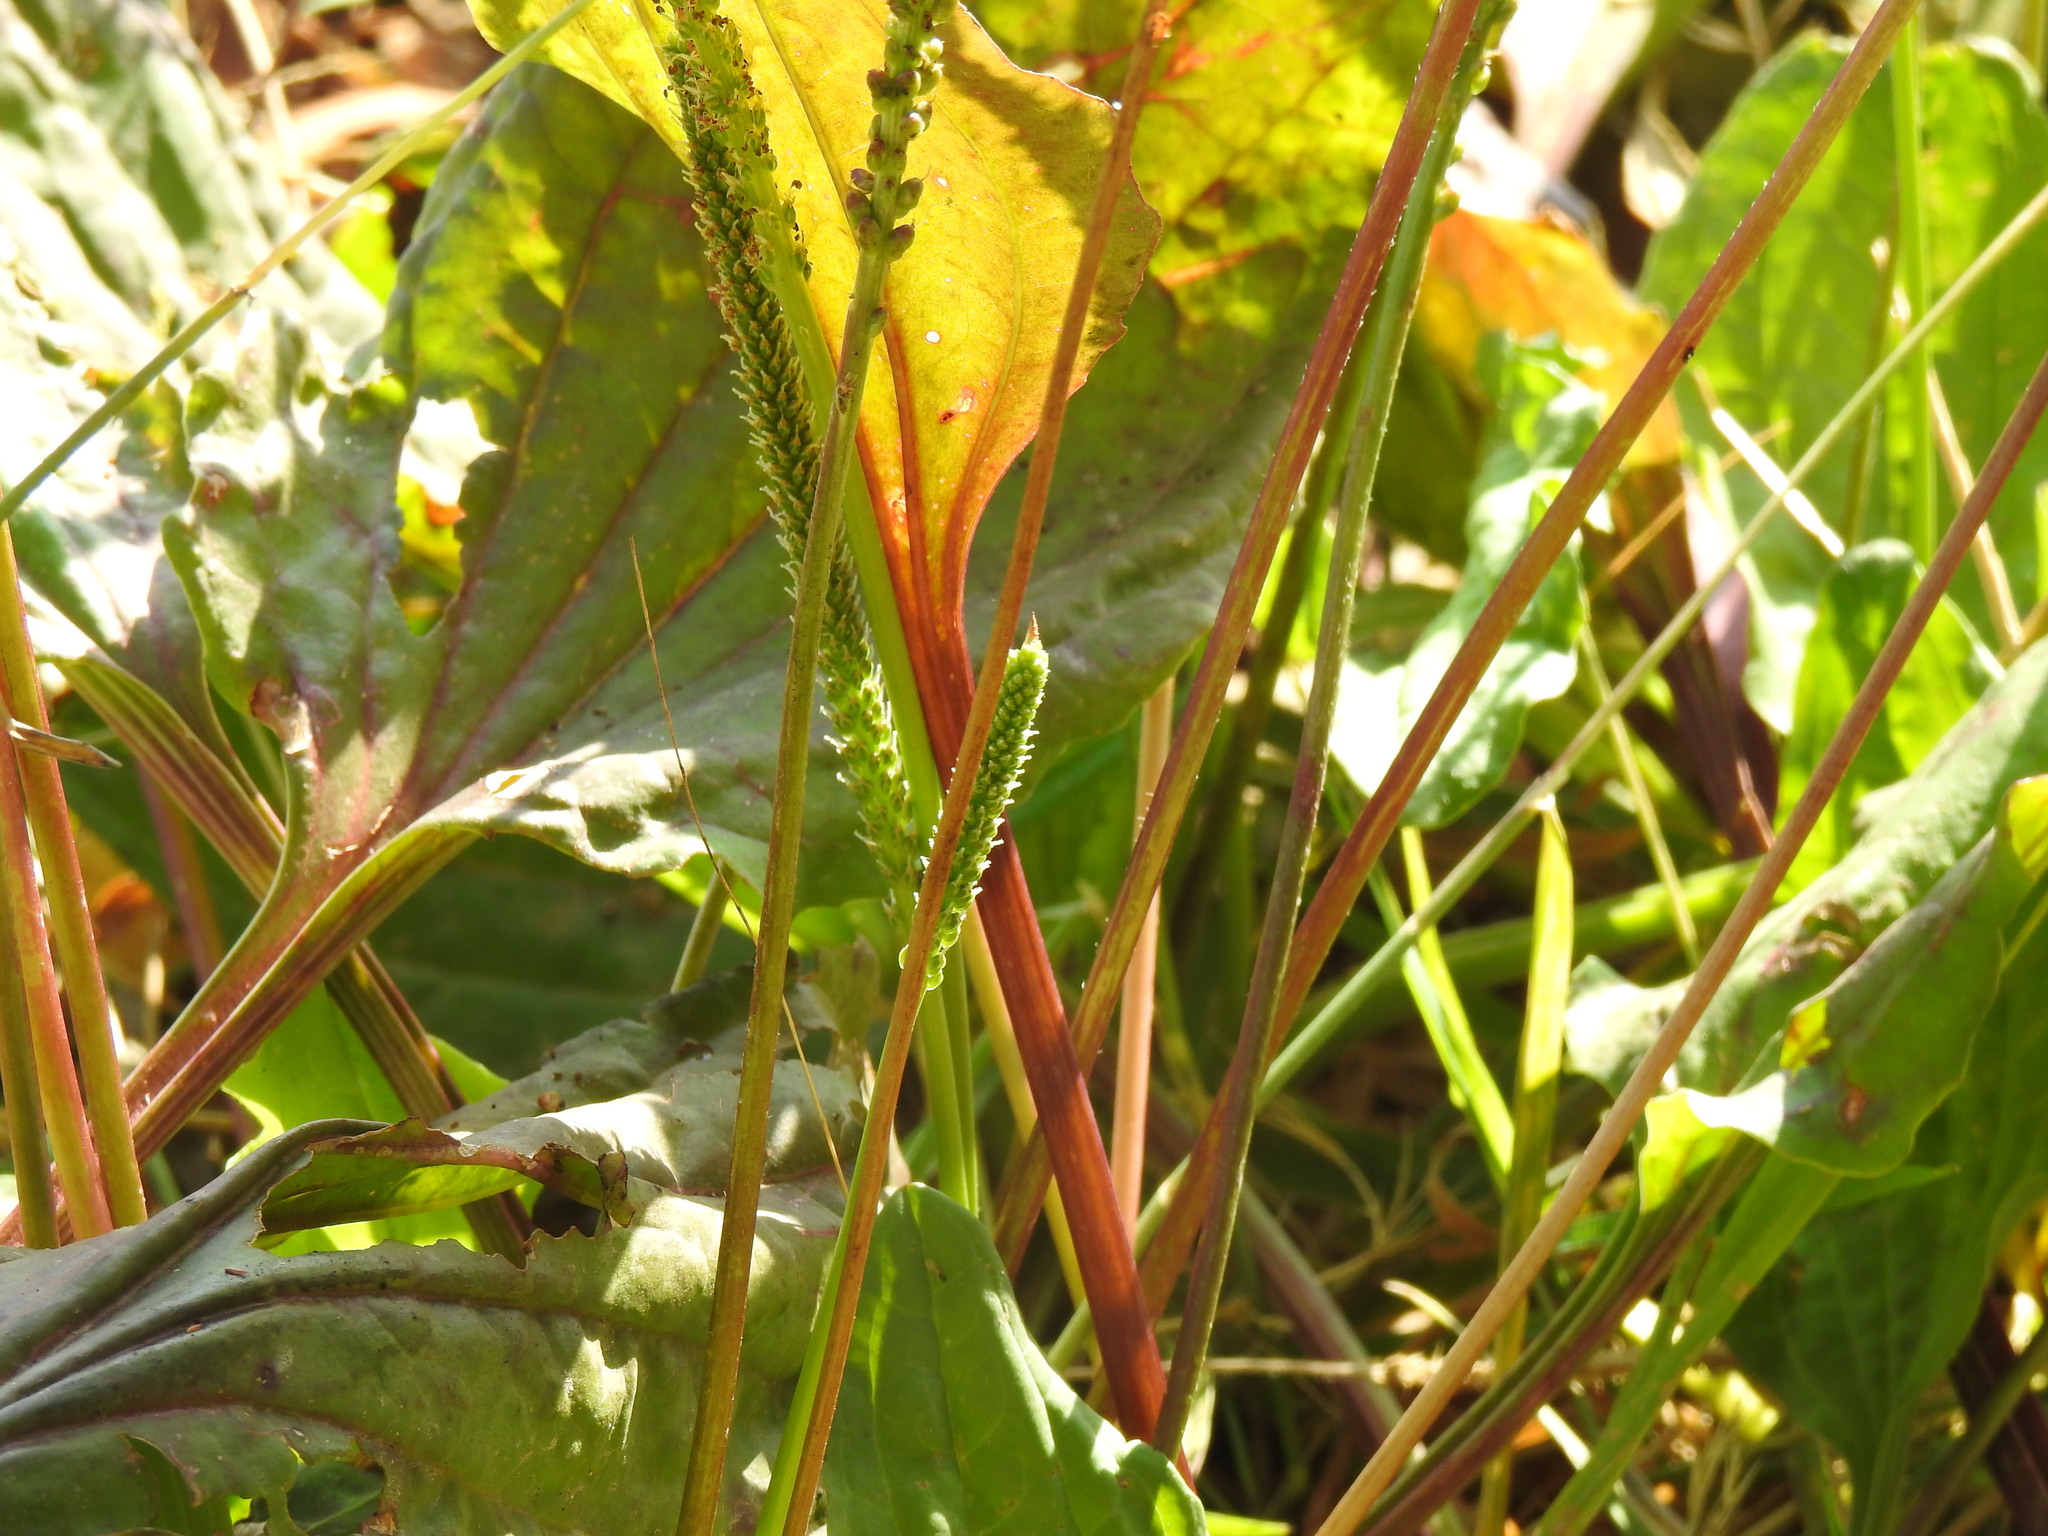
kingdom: Plantae
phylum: Tracheophyta
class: Magnoliopsida
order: Lamiales
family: Plantaginaceae
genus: Plantago
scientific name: Plantago major
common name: Common plantain
